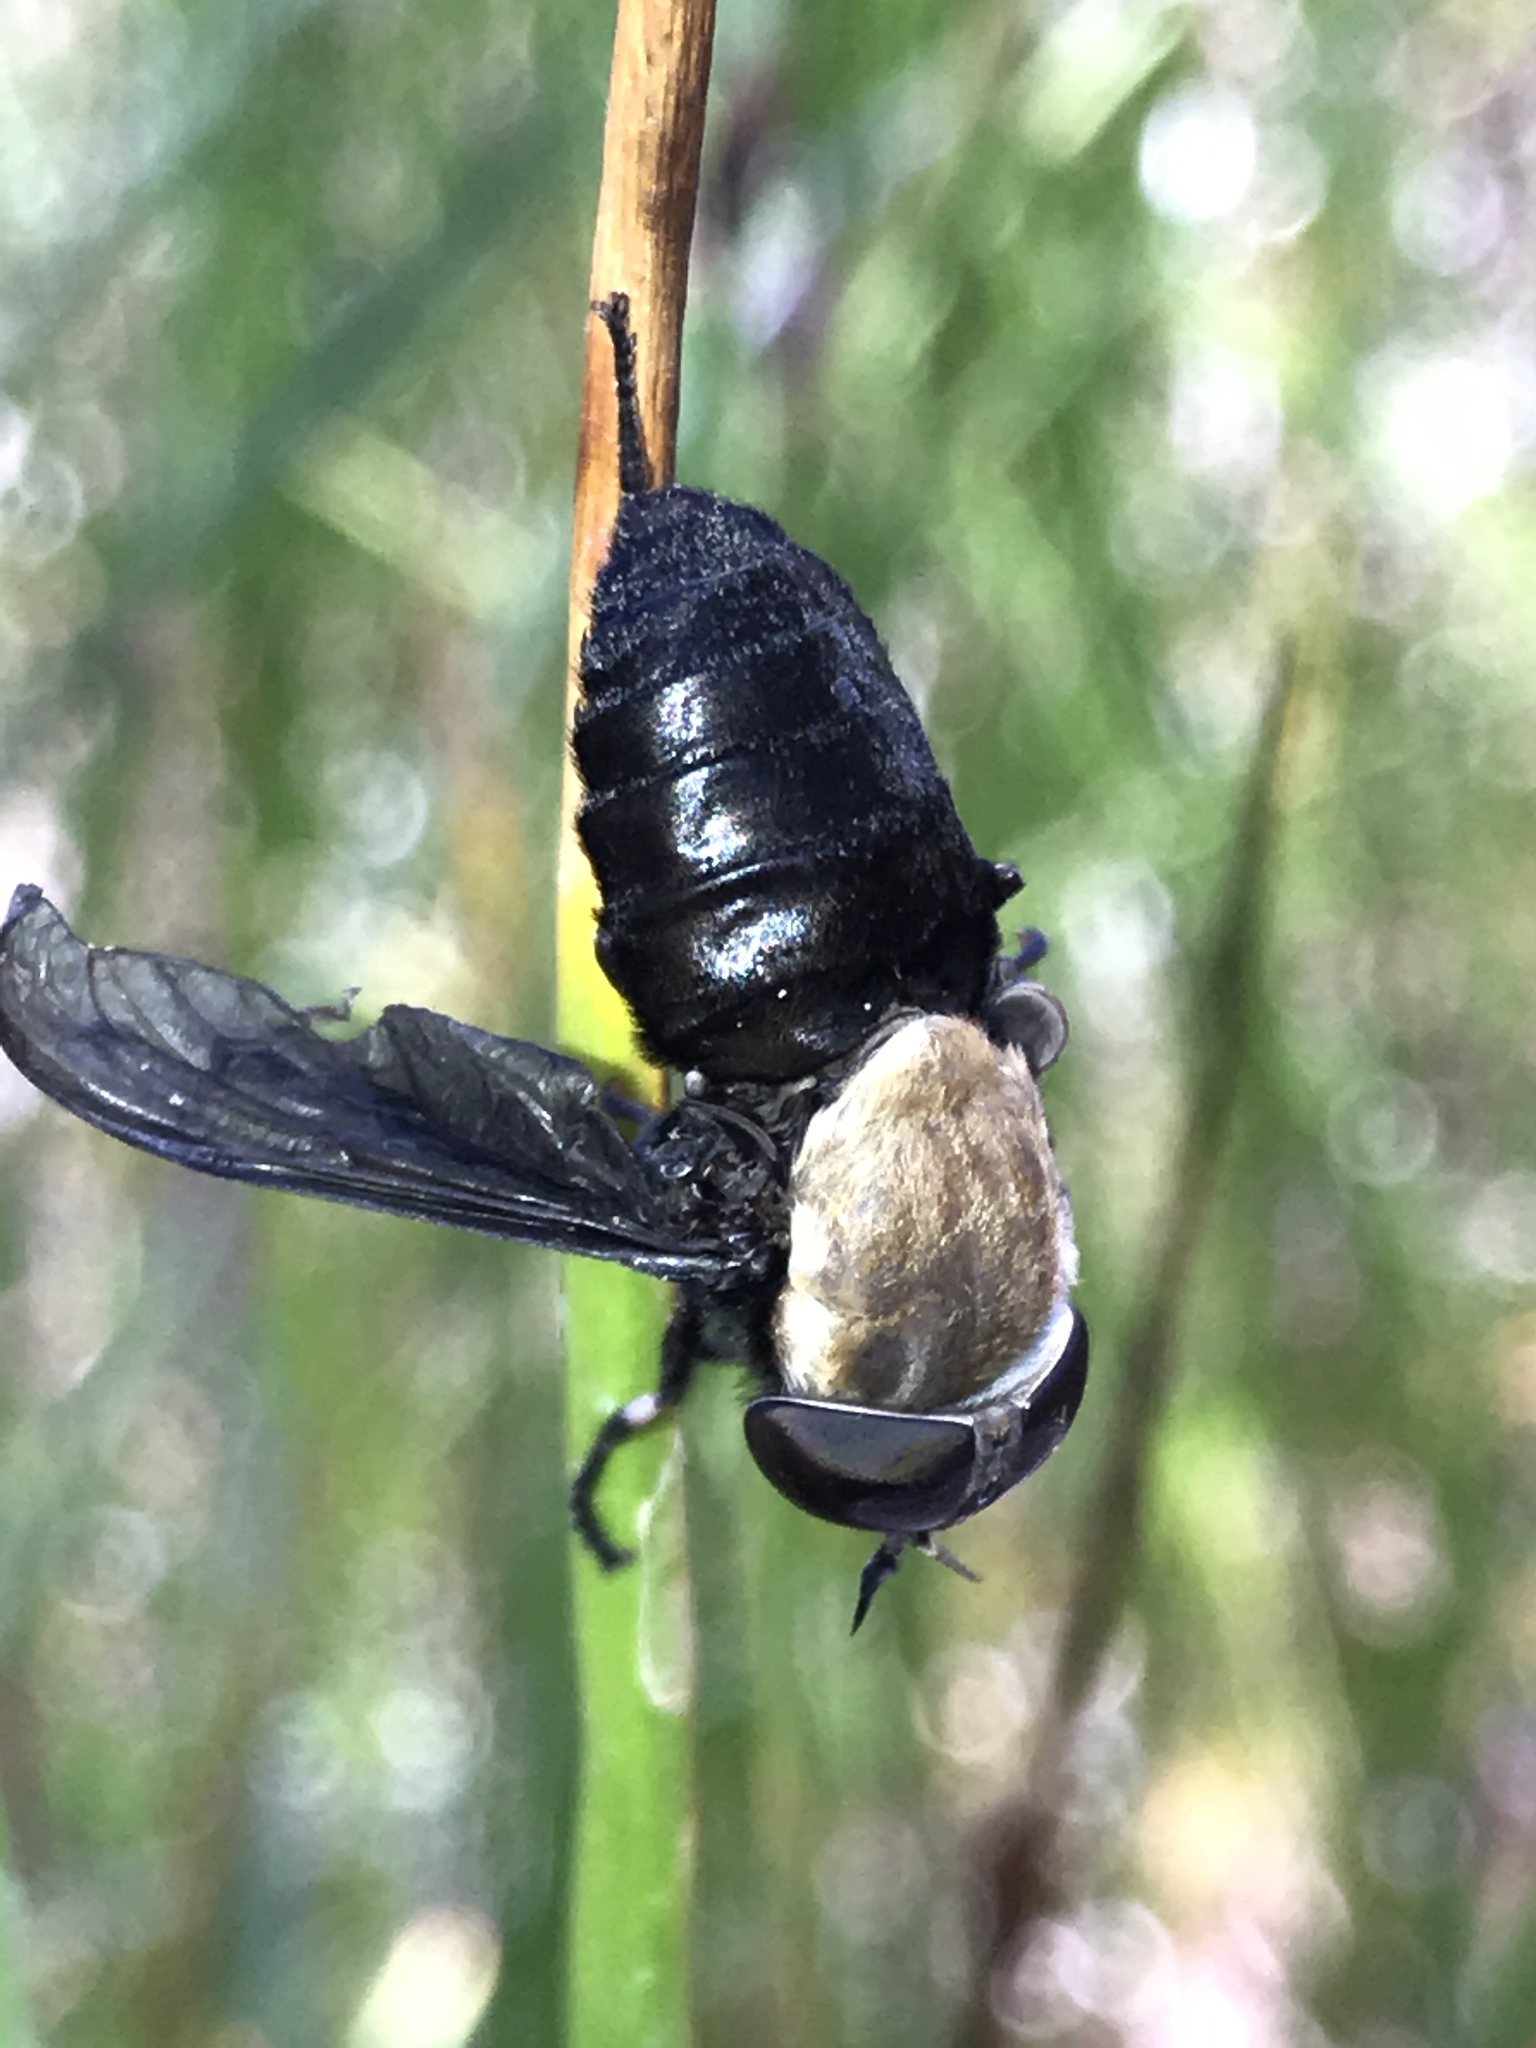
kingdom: Animalia
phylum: Arthropoda
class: Insecta
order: Diptera
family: Tabanidae
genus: Tabanus
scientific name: Tabanus punctifer
